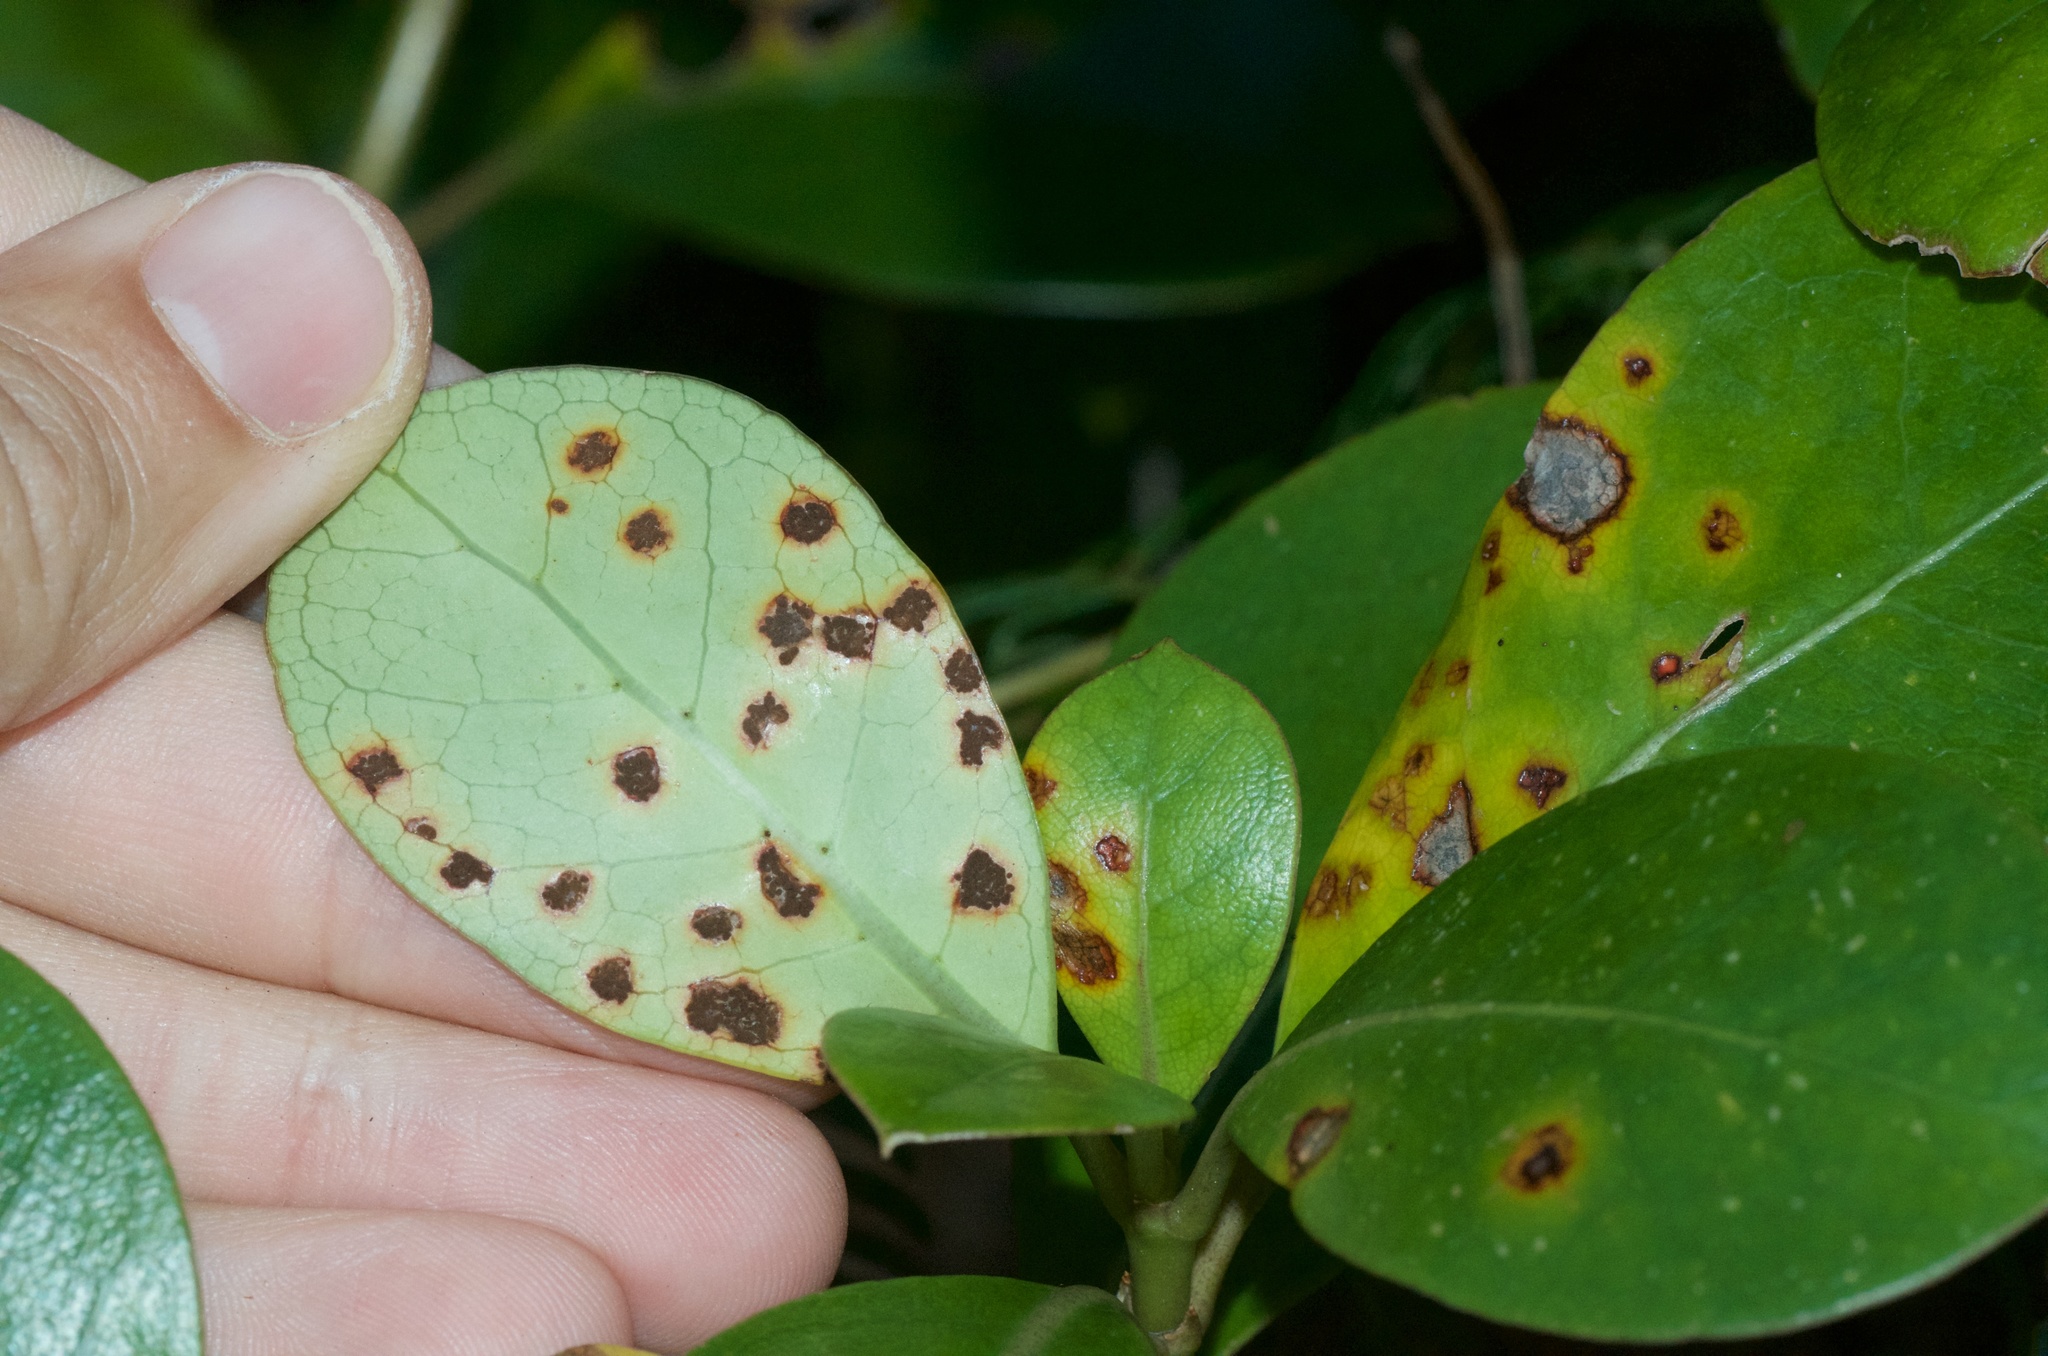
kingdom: Fungi
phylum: Basidiomycota
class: Pucciniomycetes
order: Pucciniales
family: Pucciniaceae
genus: Puccinia
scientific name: Puccinia coprosmae
